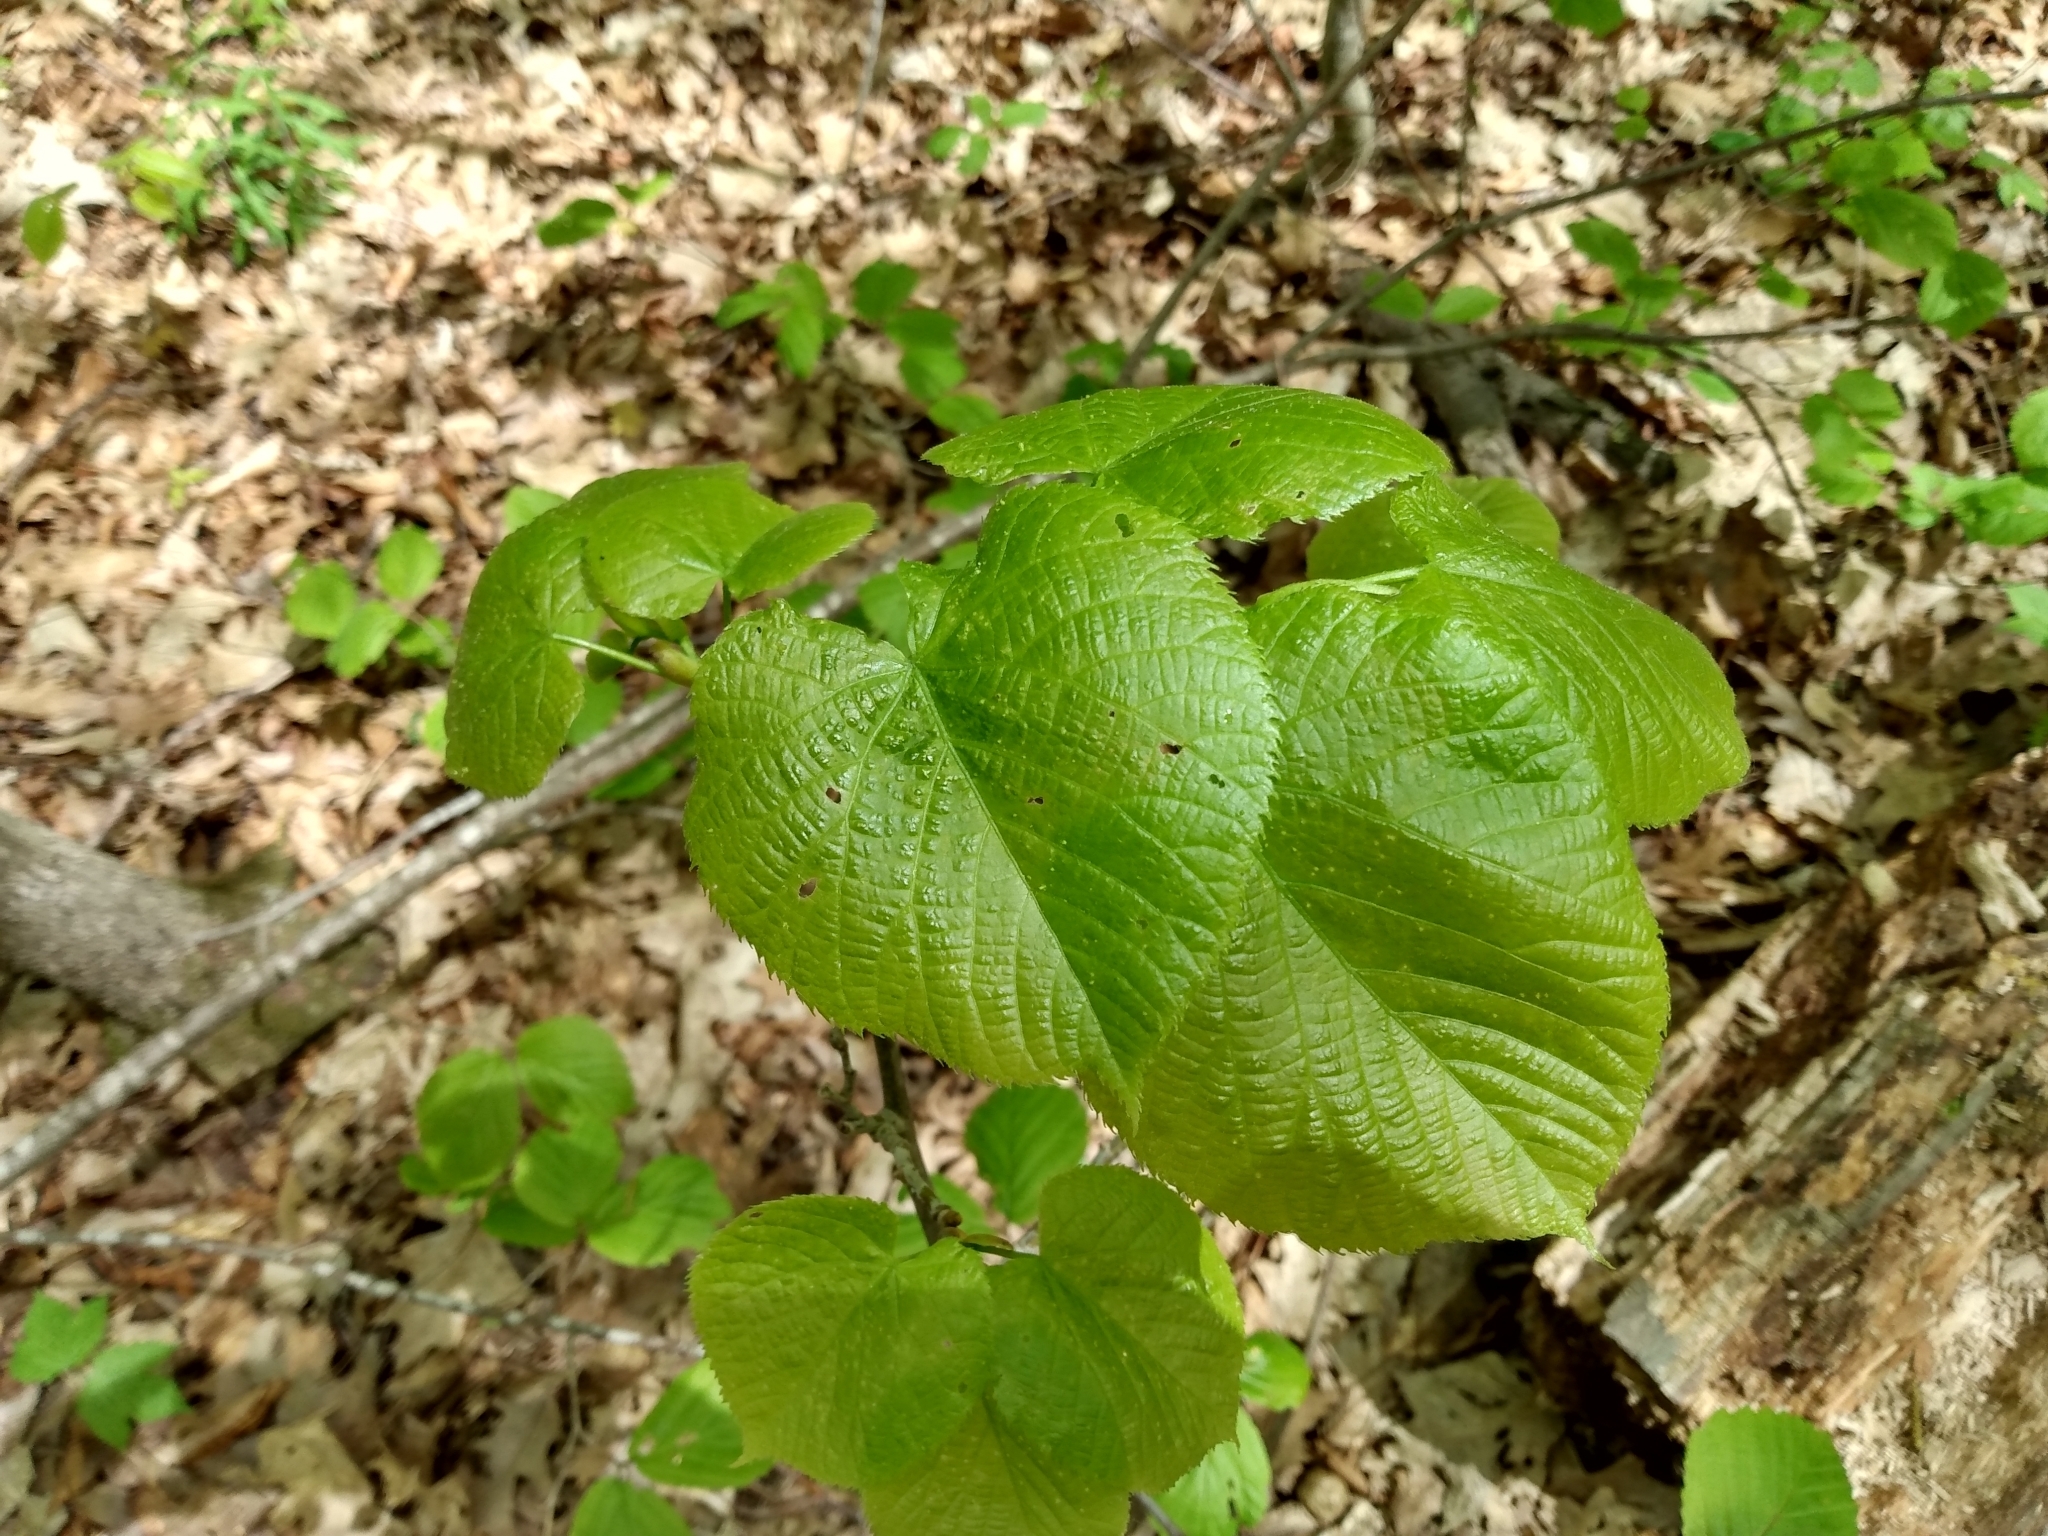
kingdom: Plantae
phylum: Tracheophyta
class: Magnoliopsida
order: Malvales
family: Malvaceae
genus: Tilia
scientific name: Tilia americana
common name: Basswood
